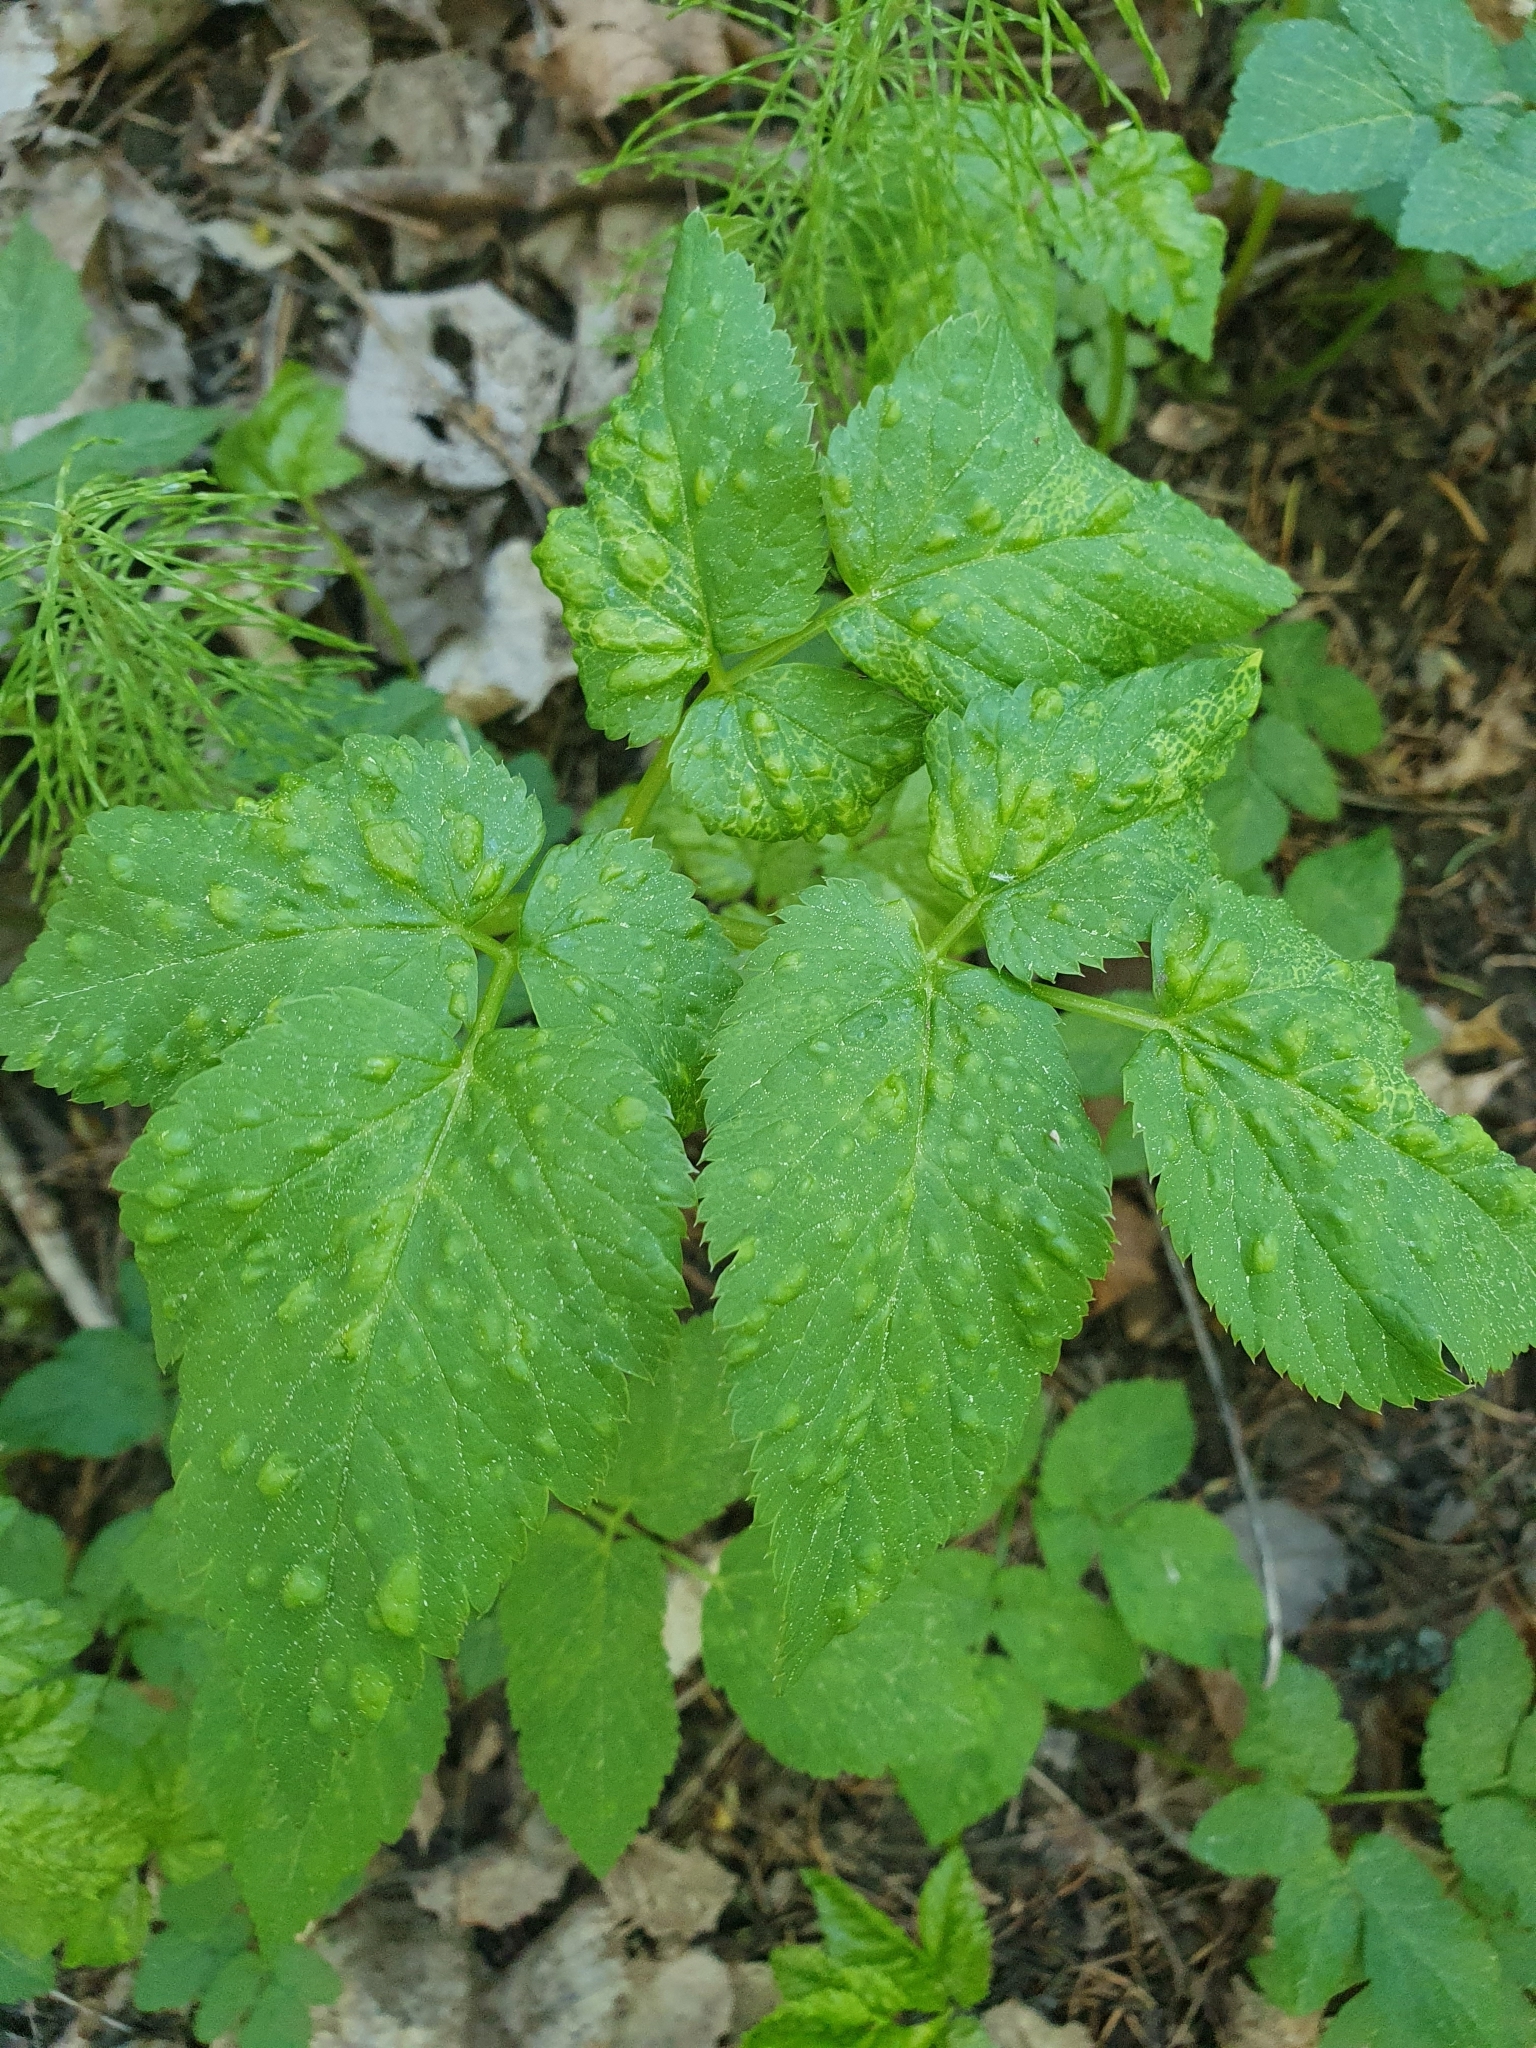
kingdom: Animalia
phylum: Arthropoda
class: Insecta
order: Hemiptera
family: Triozidae
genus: Trioza
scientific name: Trioza flavipennis
